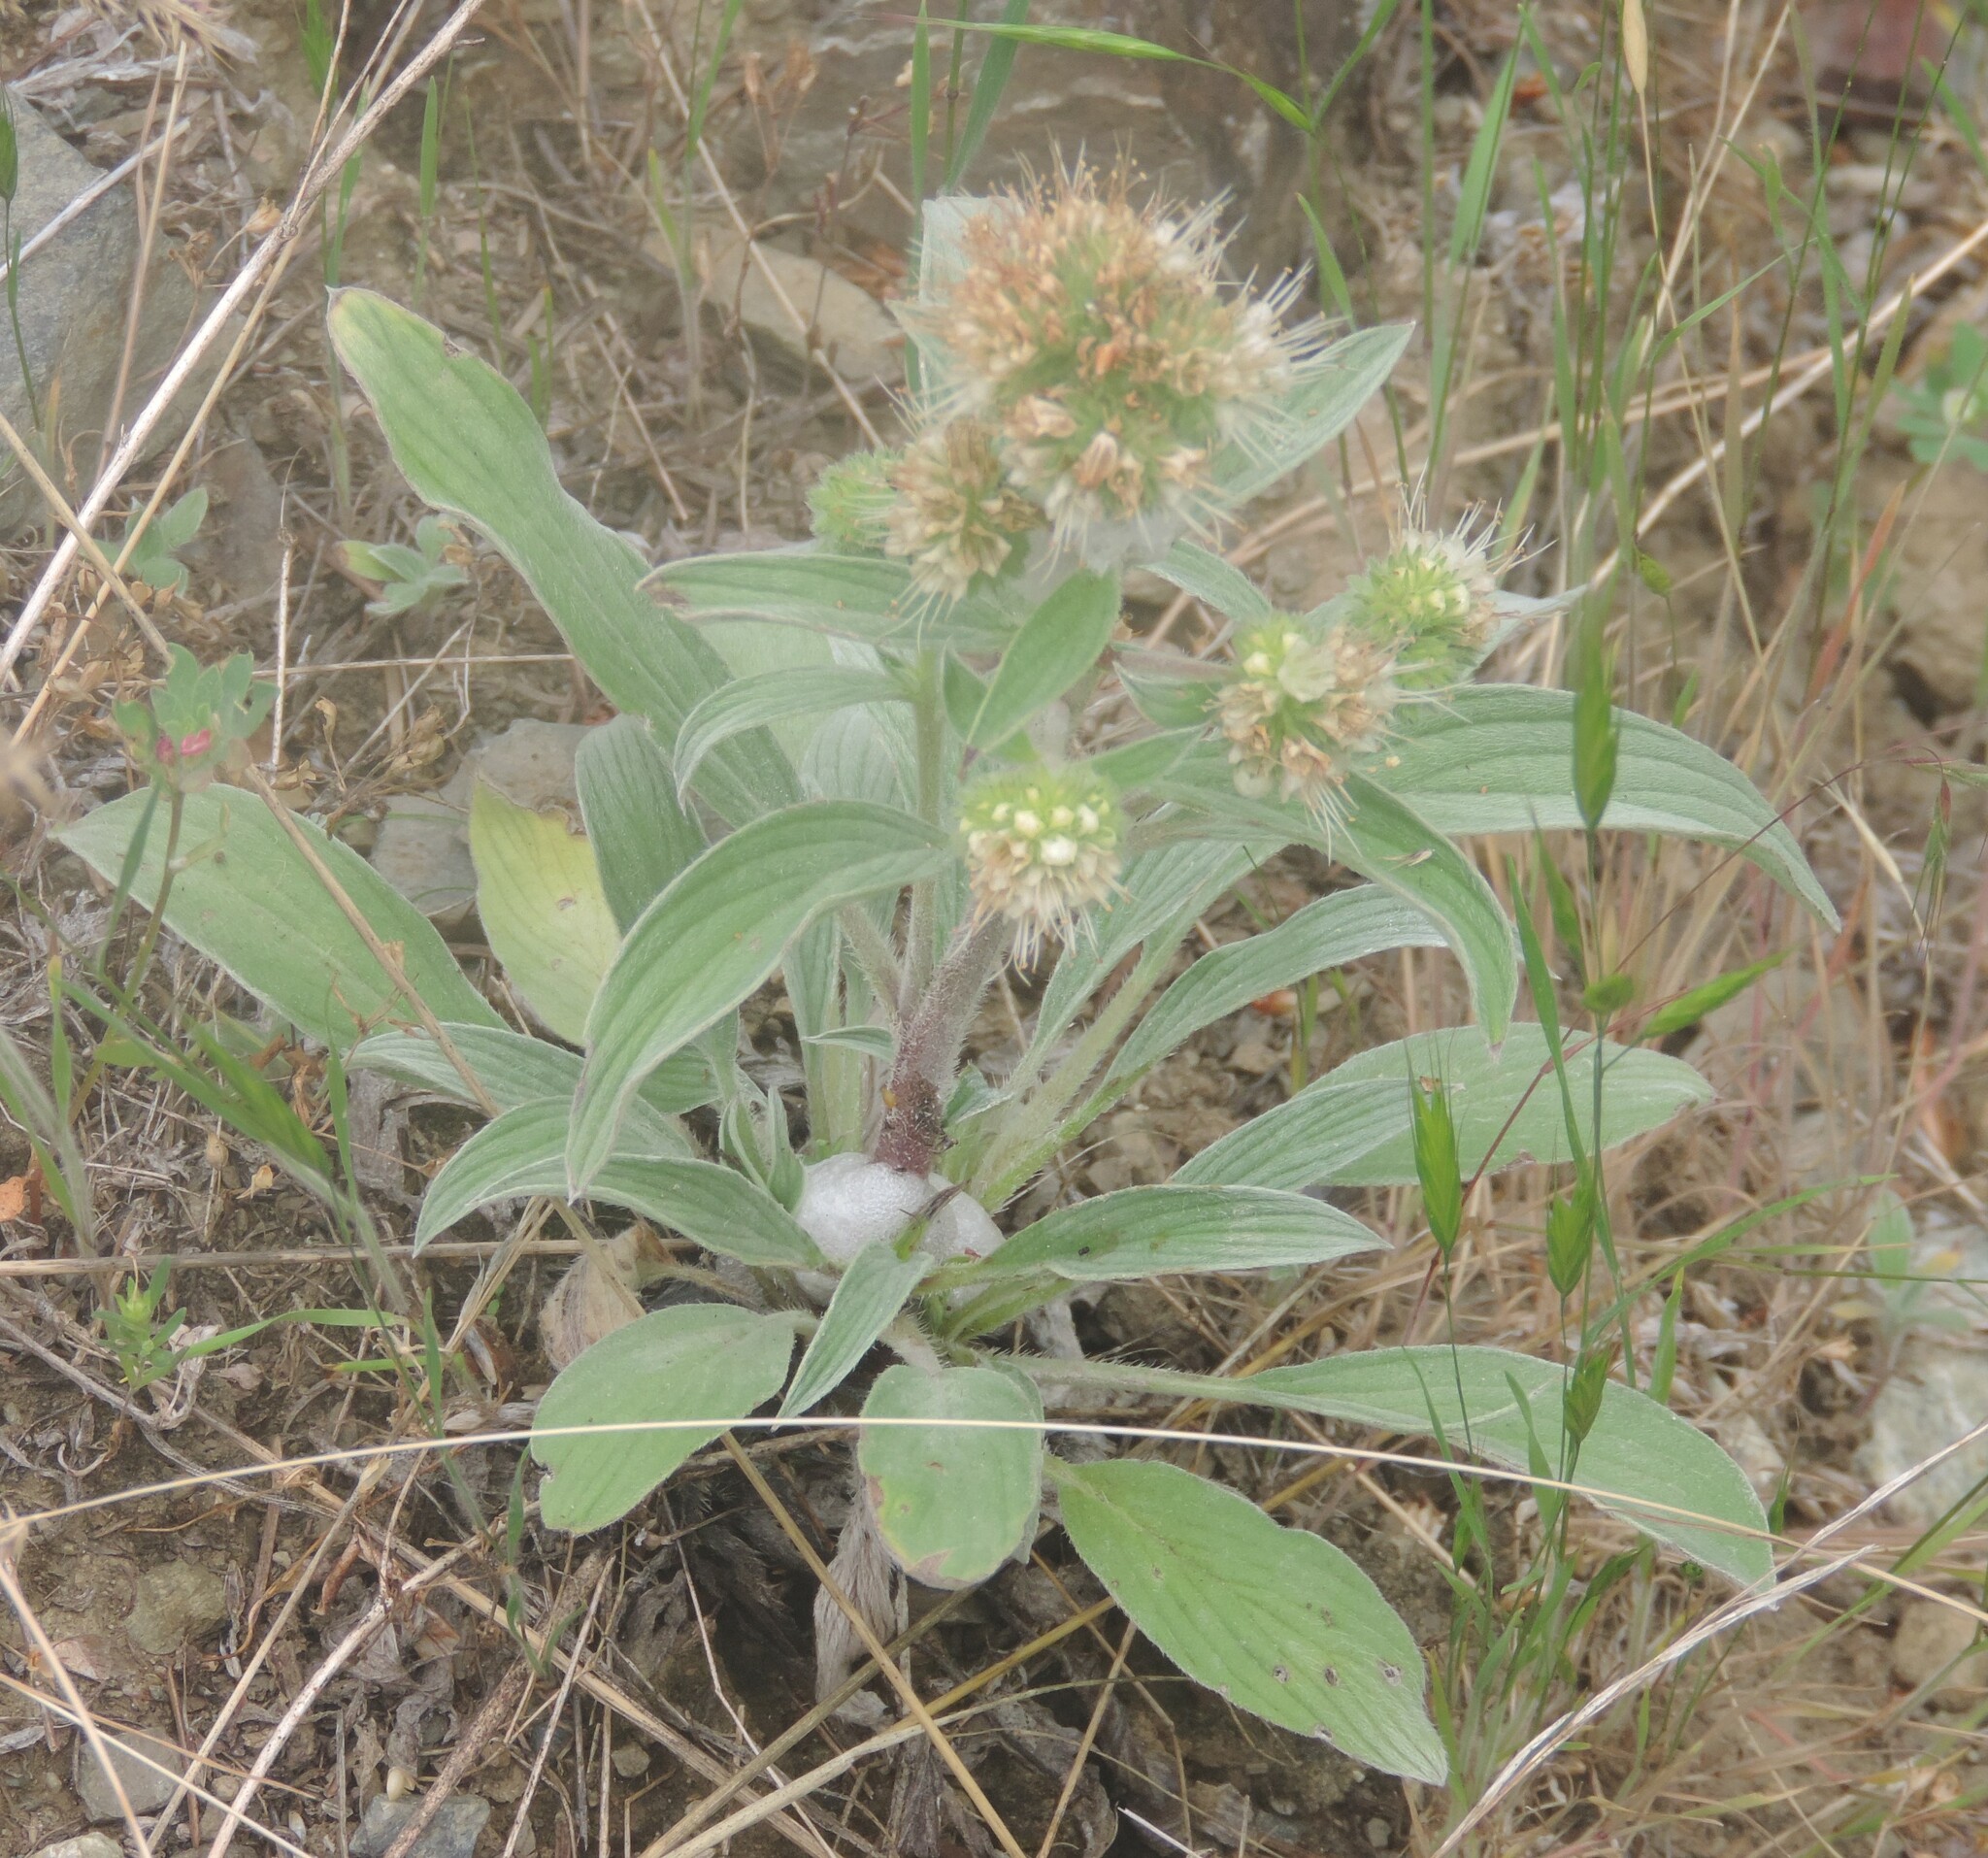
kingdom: Plantae
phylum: Tracheophyta
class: Magnoliopsida
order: Boraginales
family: Hydrophyllaceae
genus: Phacelia
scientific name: Phacelia hastata
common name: Silver-leaved phacelia
